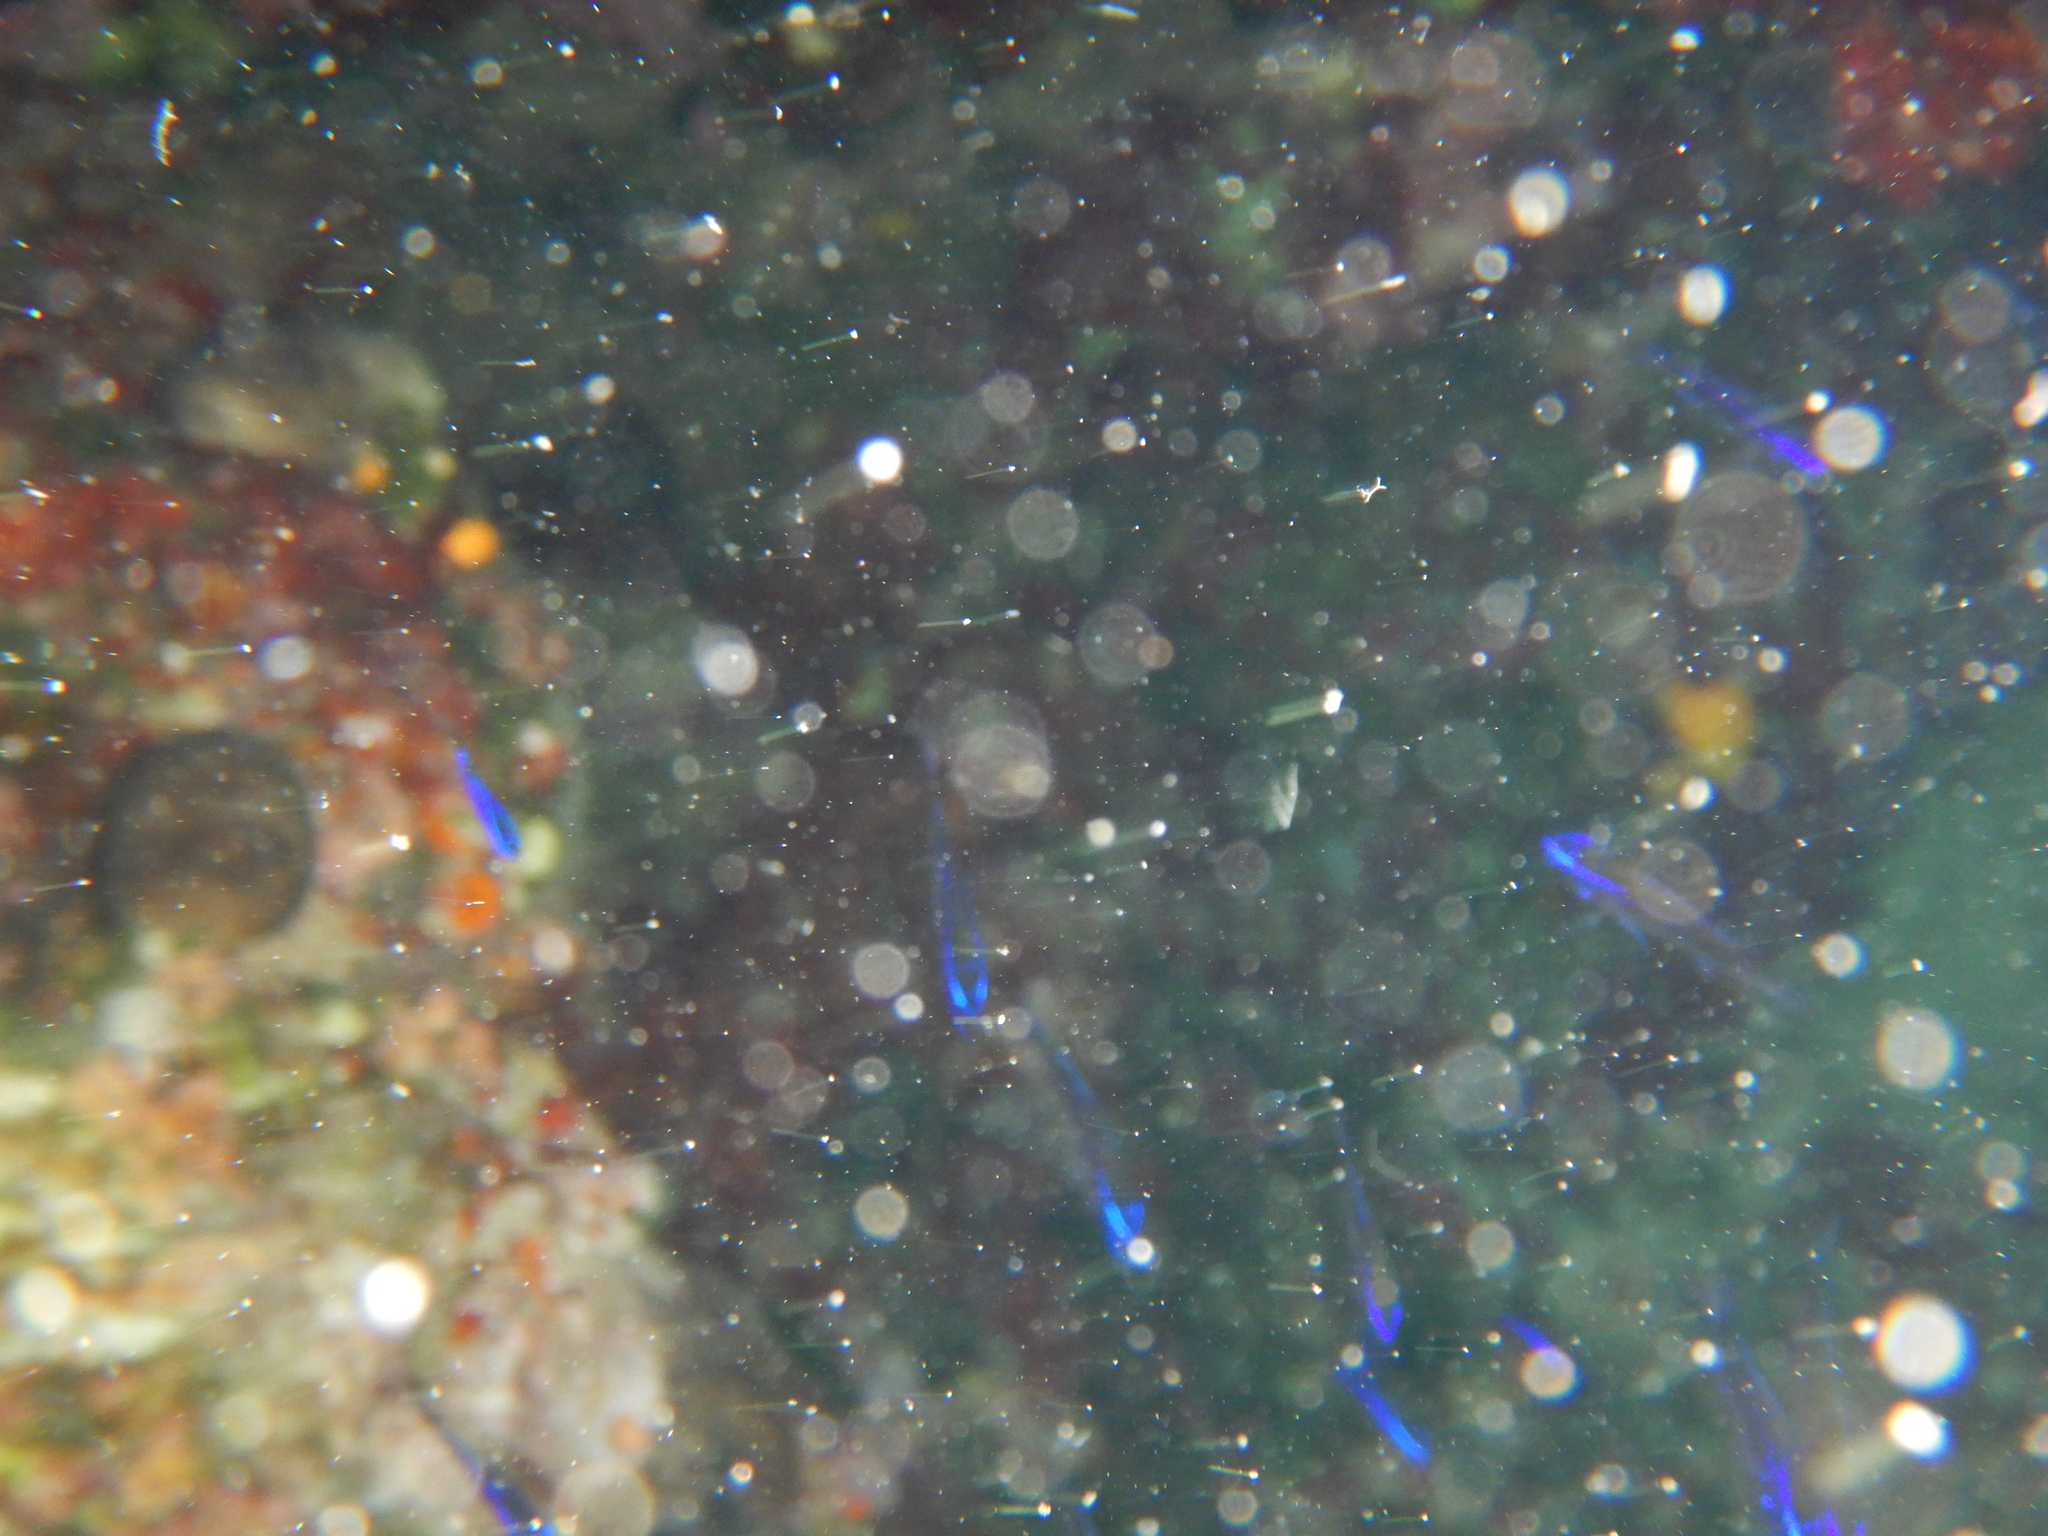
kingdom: Animalia
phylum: Chordata
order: Perciformes
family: Pomacentridae
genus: Chromis
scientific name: Chromis chromis
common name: Damselfish
